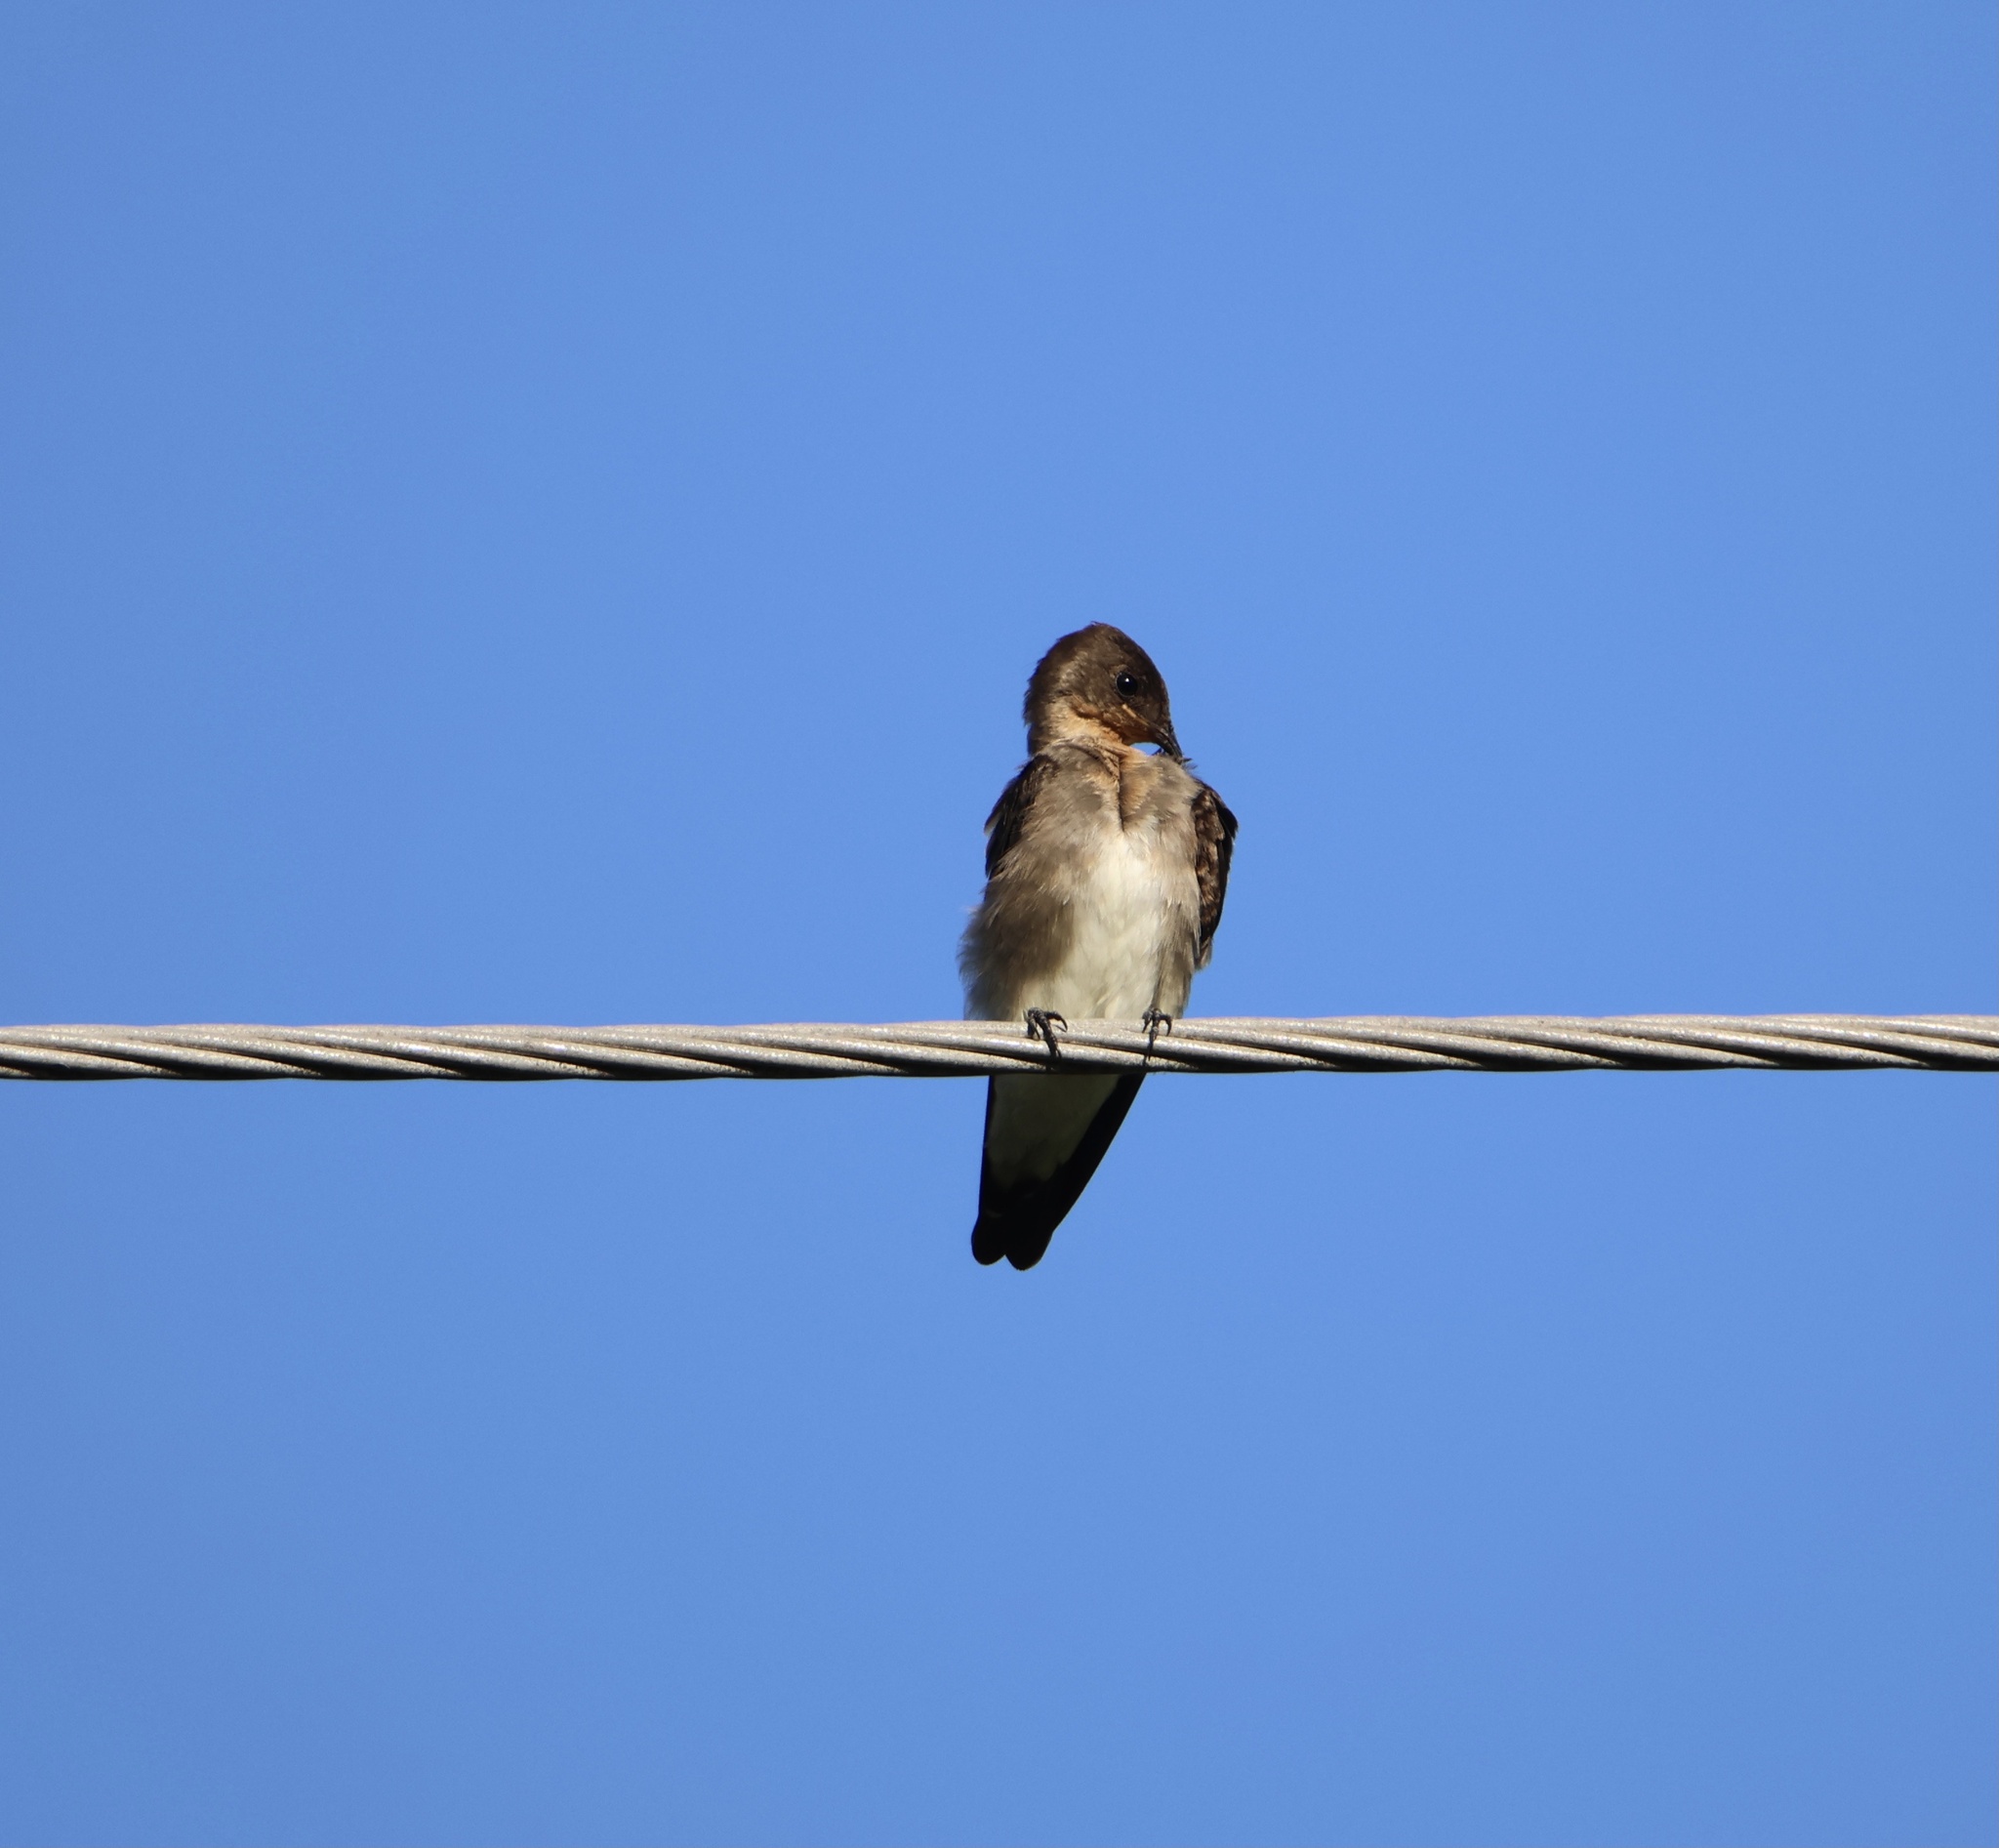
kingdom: Animalia
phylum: Chordata
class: Aves
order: Passeriformes
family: Hirundinidae
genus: Stelgidopteryx
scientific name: Stelgidopteryx ruficollis
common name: Southern rough-winged swallow
